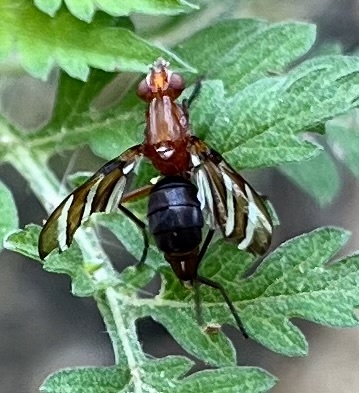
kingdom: Animalia
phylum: Arthropoda
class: Insecta
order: Diptera
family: Ulidiidae
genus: Tritoxa
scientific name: Tritoxa incurva
